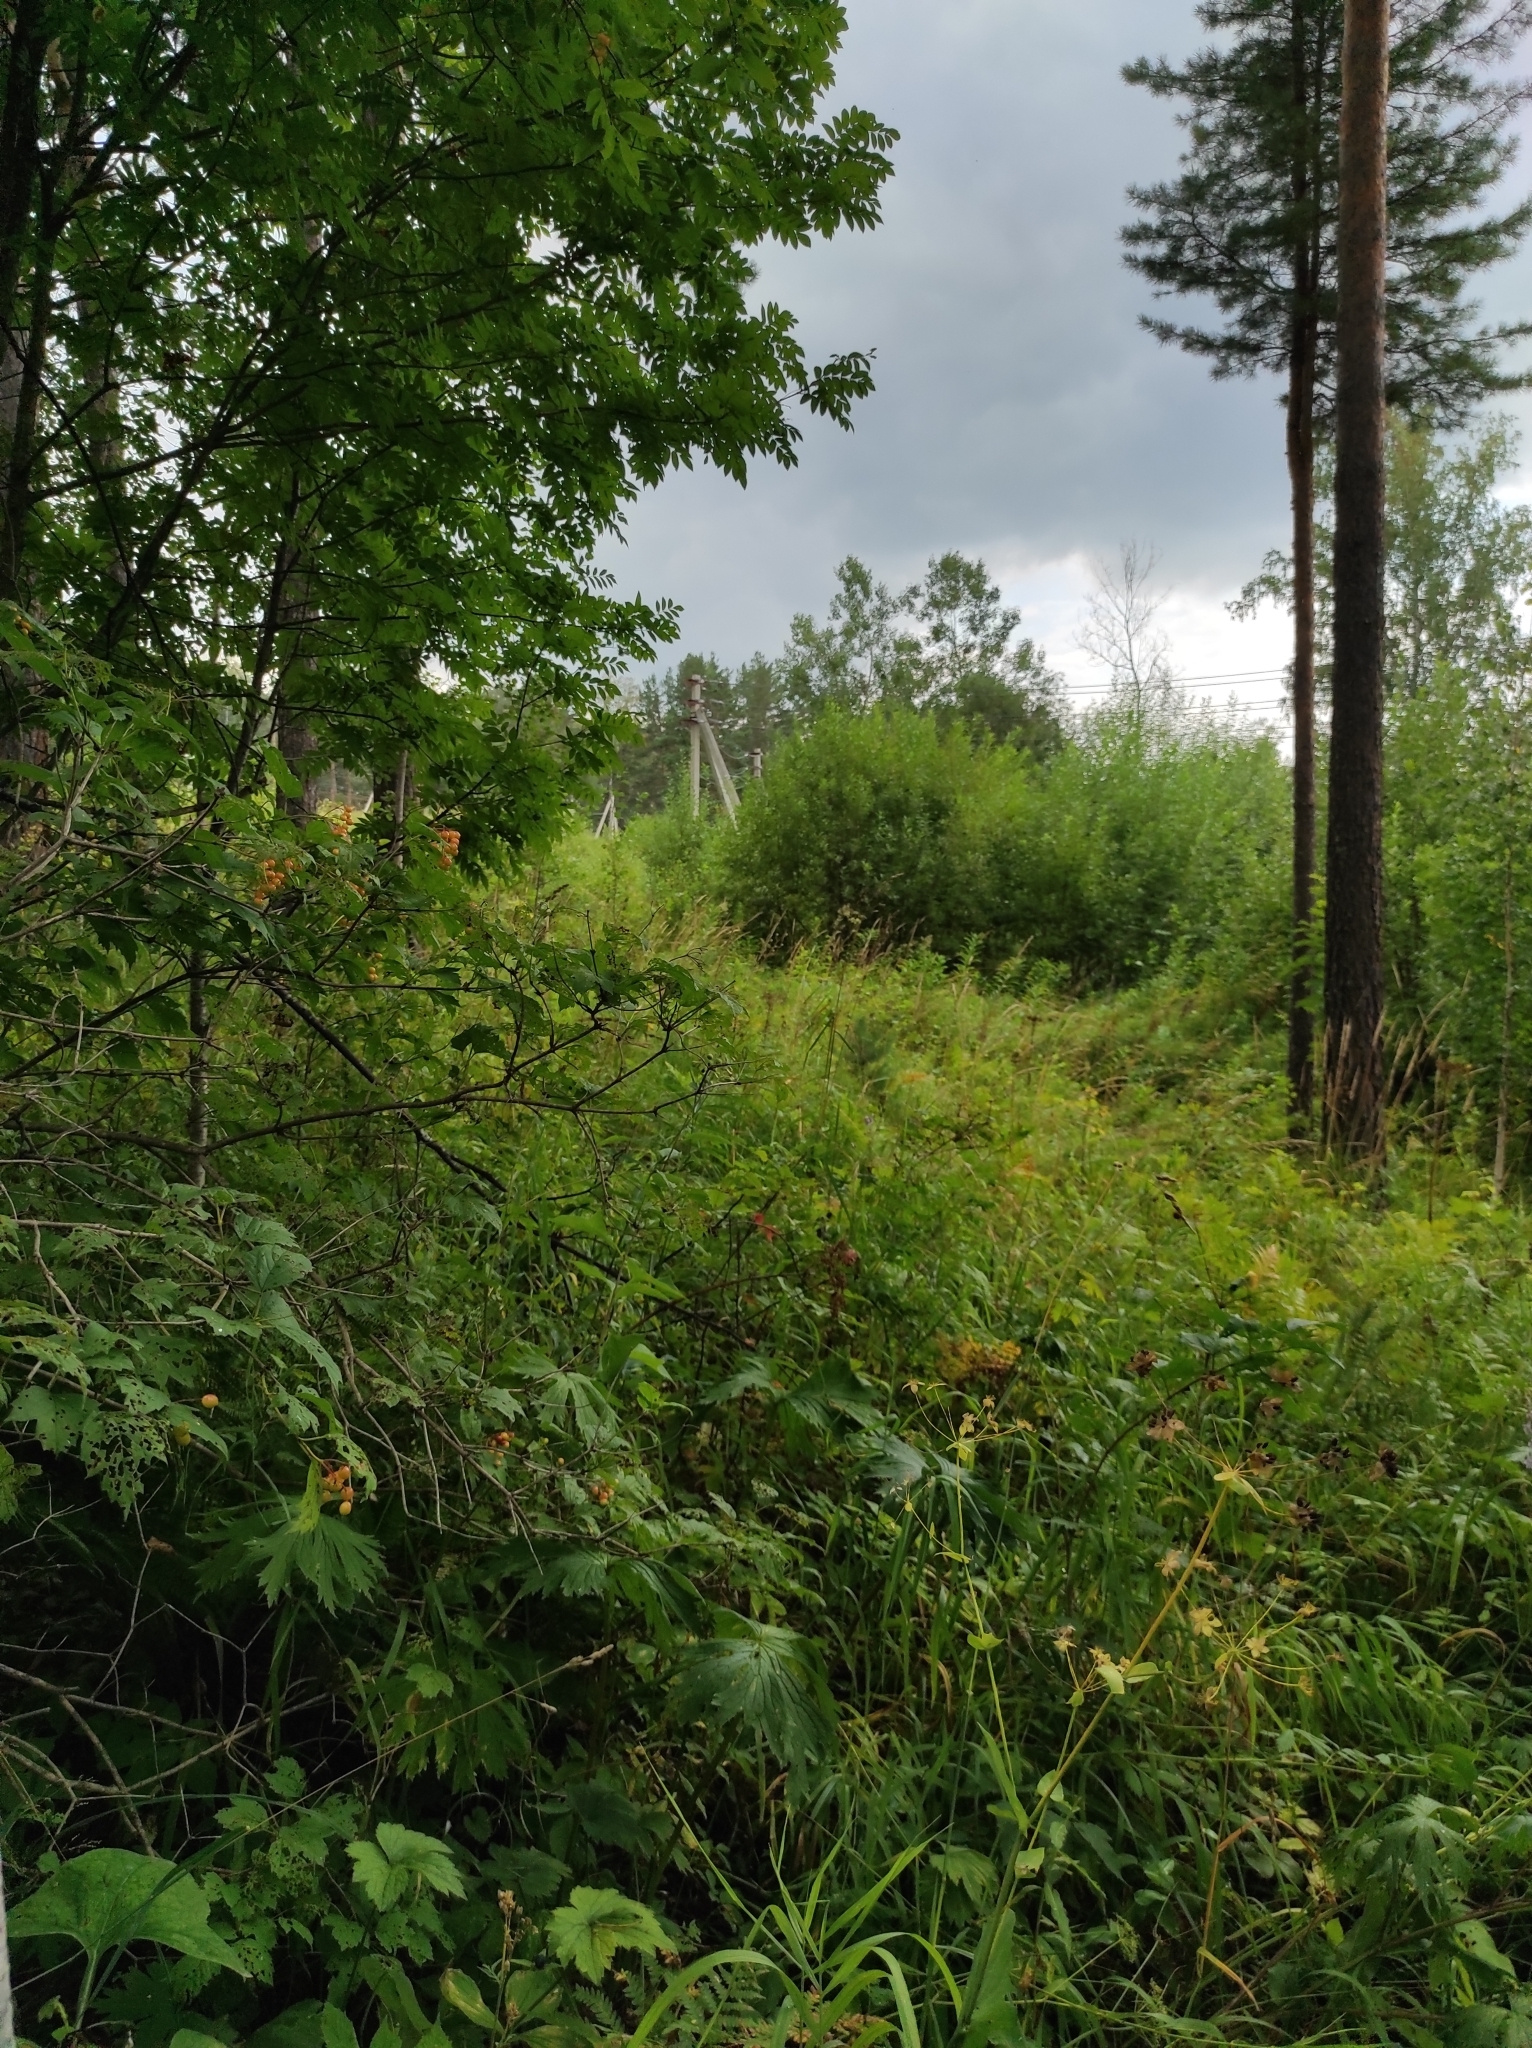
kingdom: Plantae
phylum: Tracheophyta
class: Pinopsida
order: Pinales
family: Pinaceae
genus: Pinus
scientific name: Pinus sylvestris
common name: Scots pine
